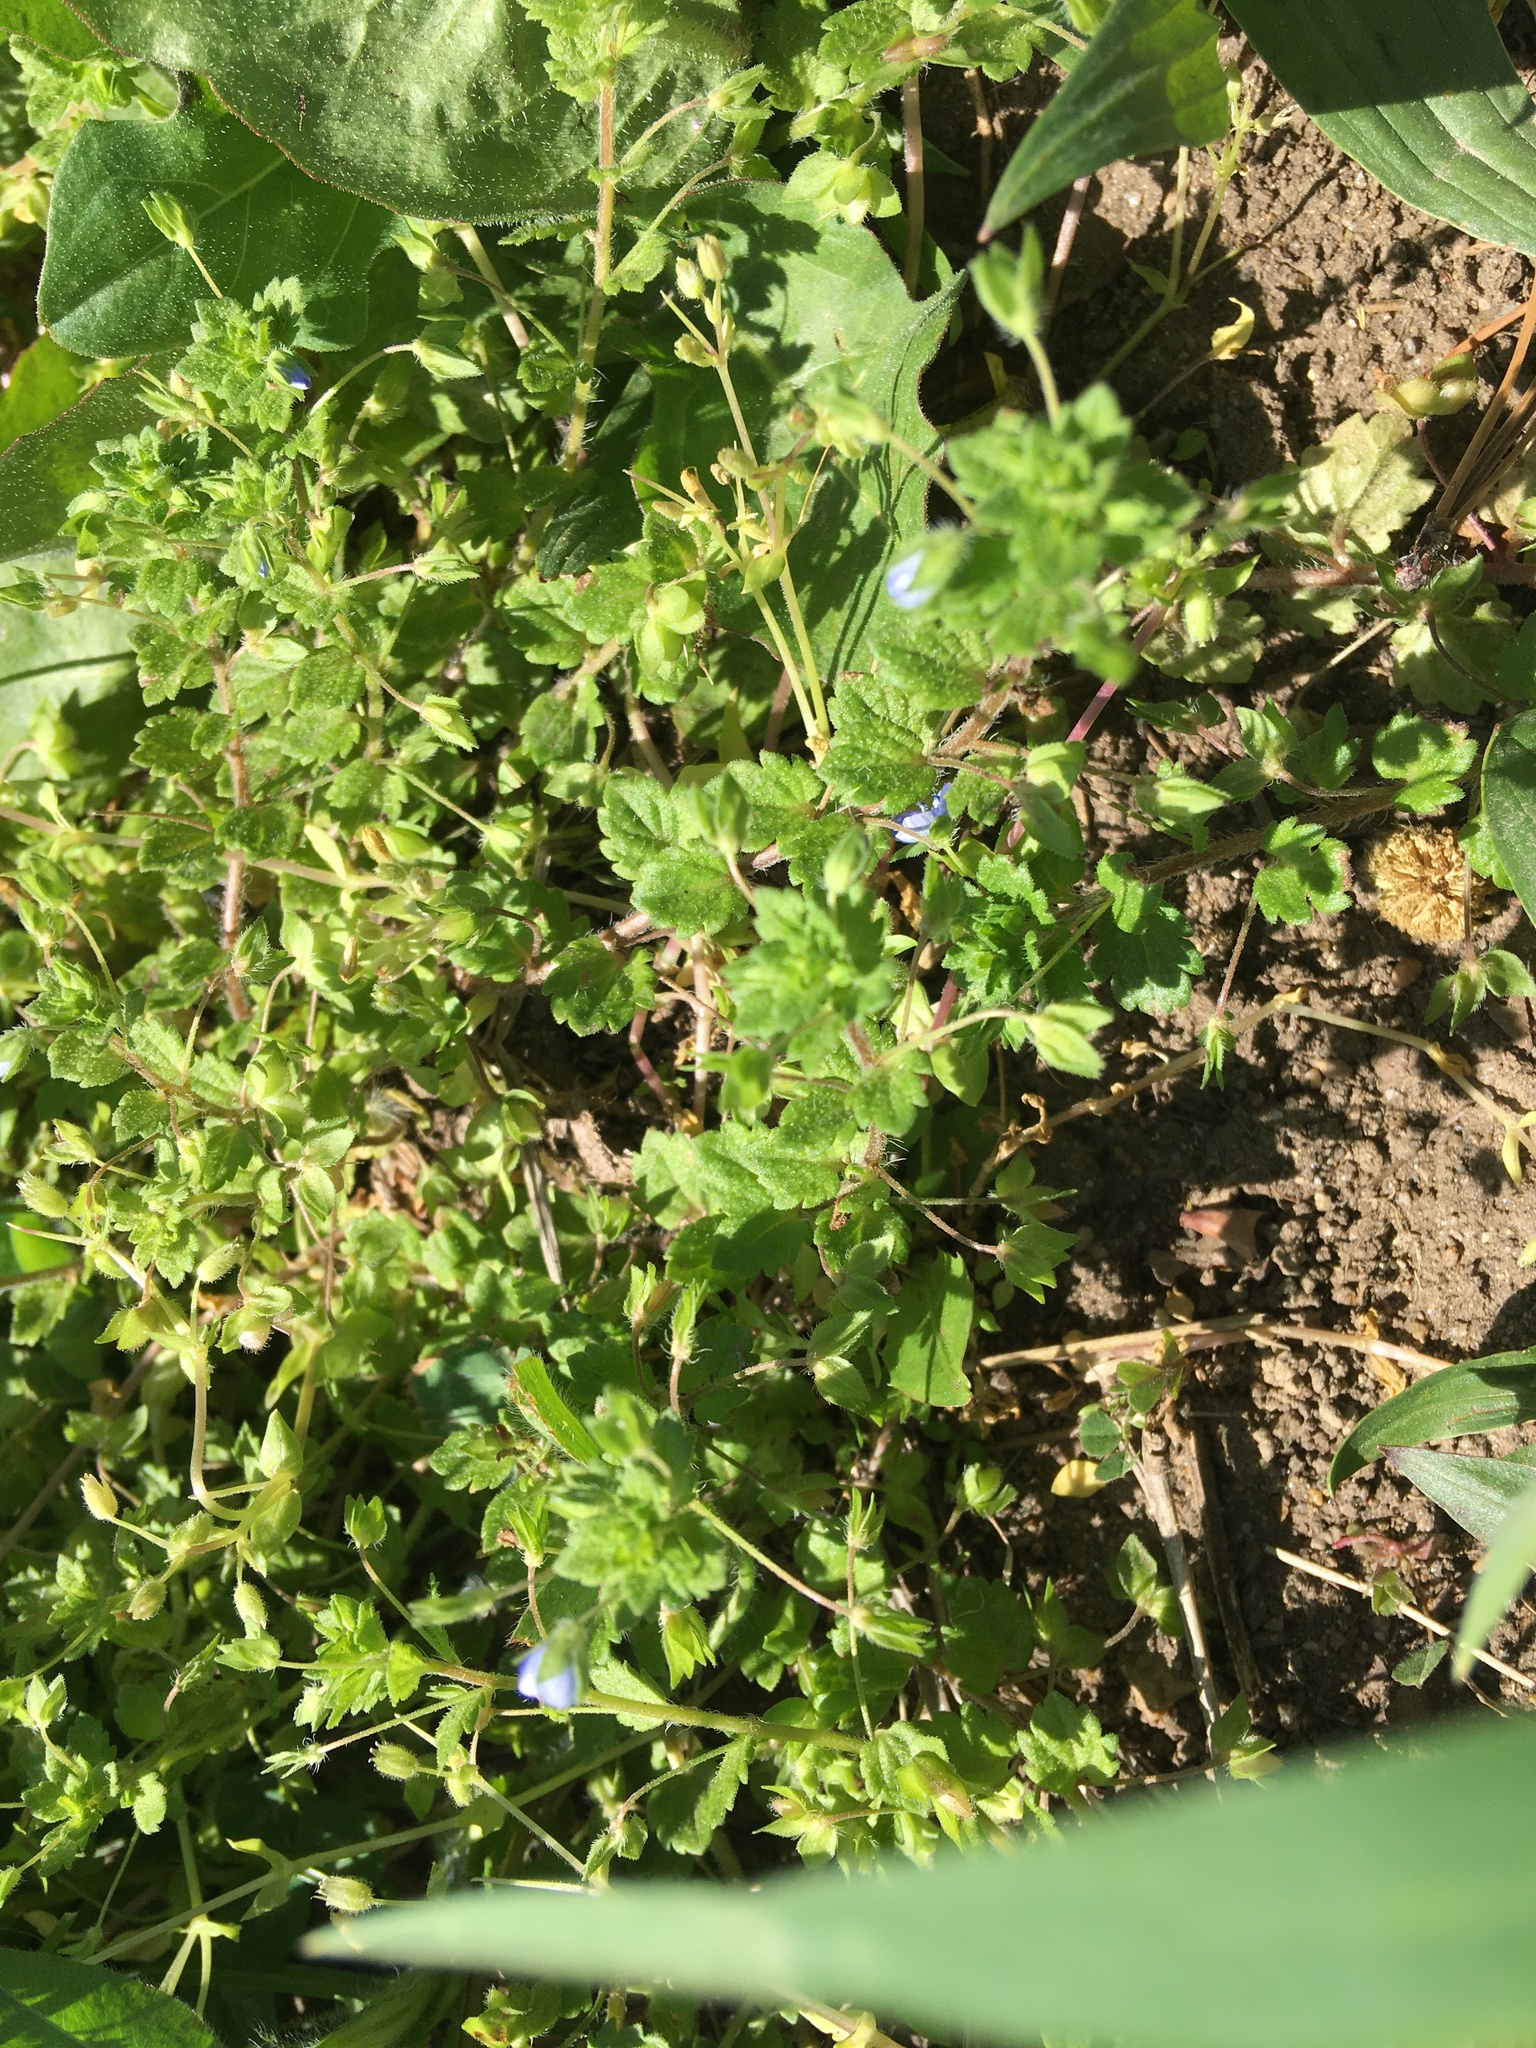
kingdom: Plantae
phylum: Tracheophyta
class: Magnoliopsida
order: Lamiales
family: Plantaginaceae
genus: Veronica
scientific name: Veronica persica
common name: Common field-speedwell
